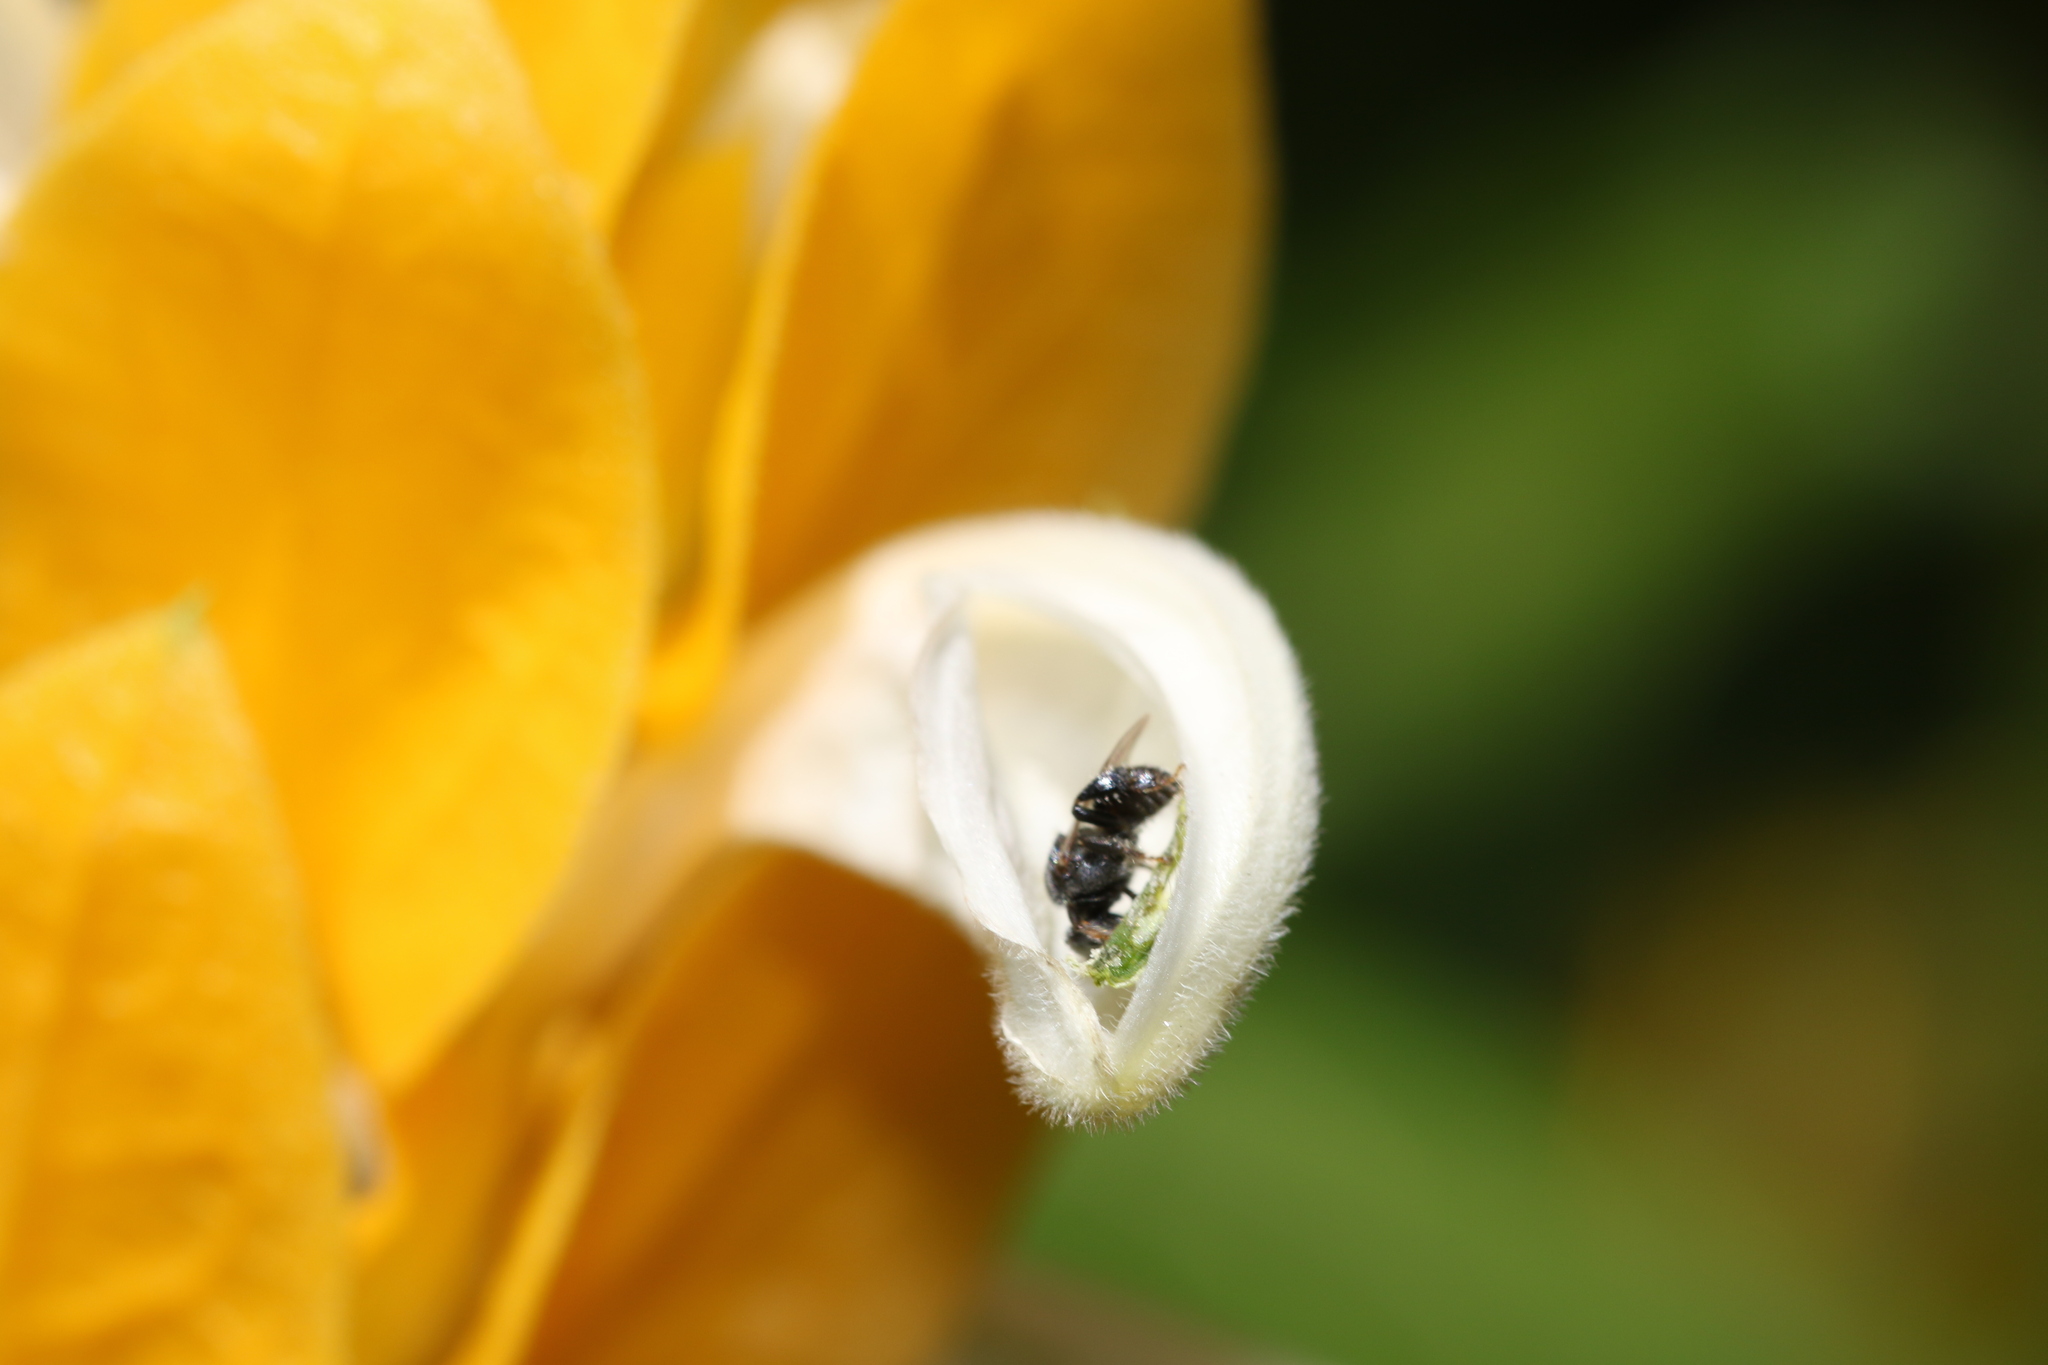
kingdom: Animalia
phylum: Arthropoda
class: Insecta
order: Hymenoptera
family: Apidae
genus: Friesella
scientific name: Friesella schrottkyi
